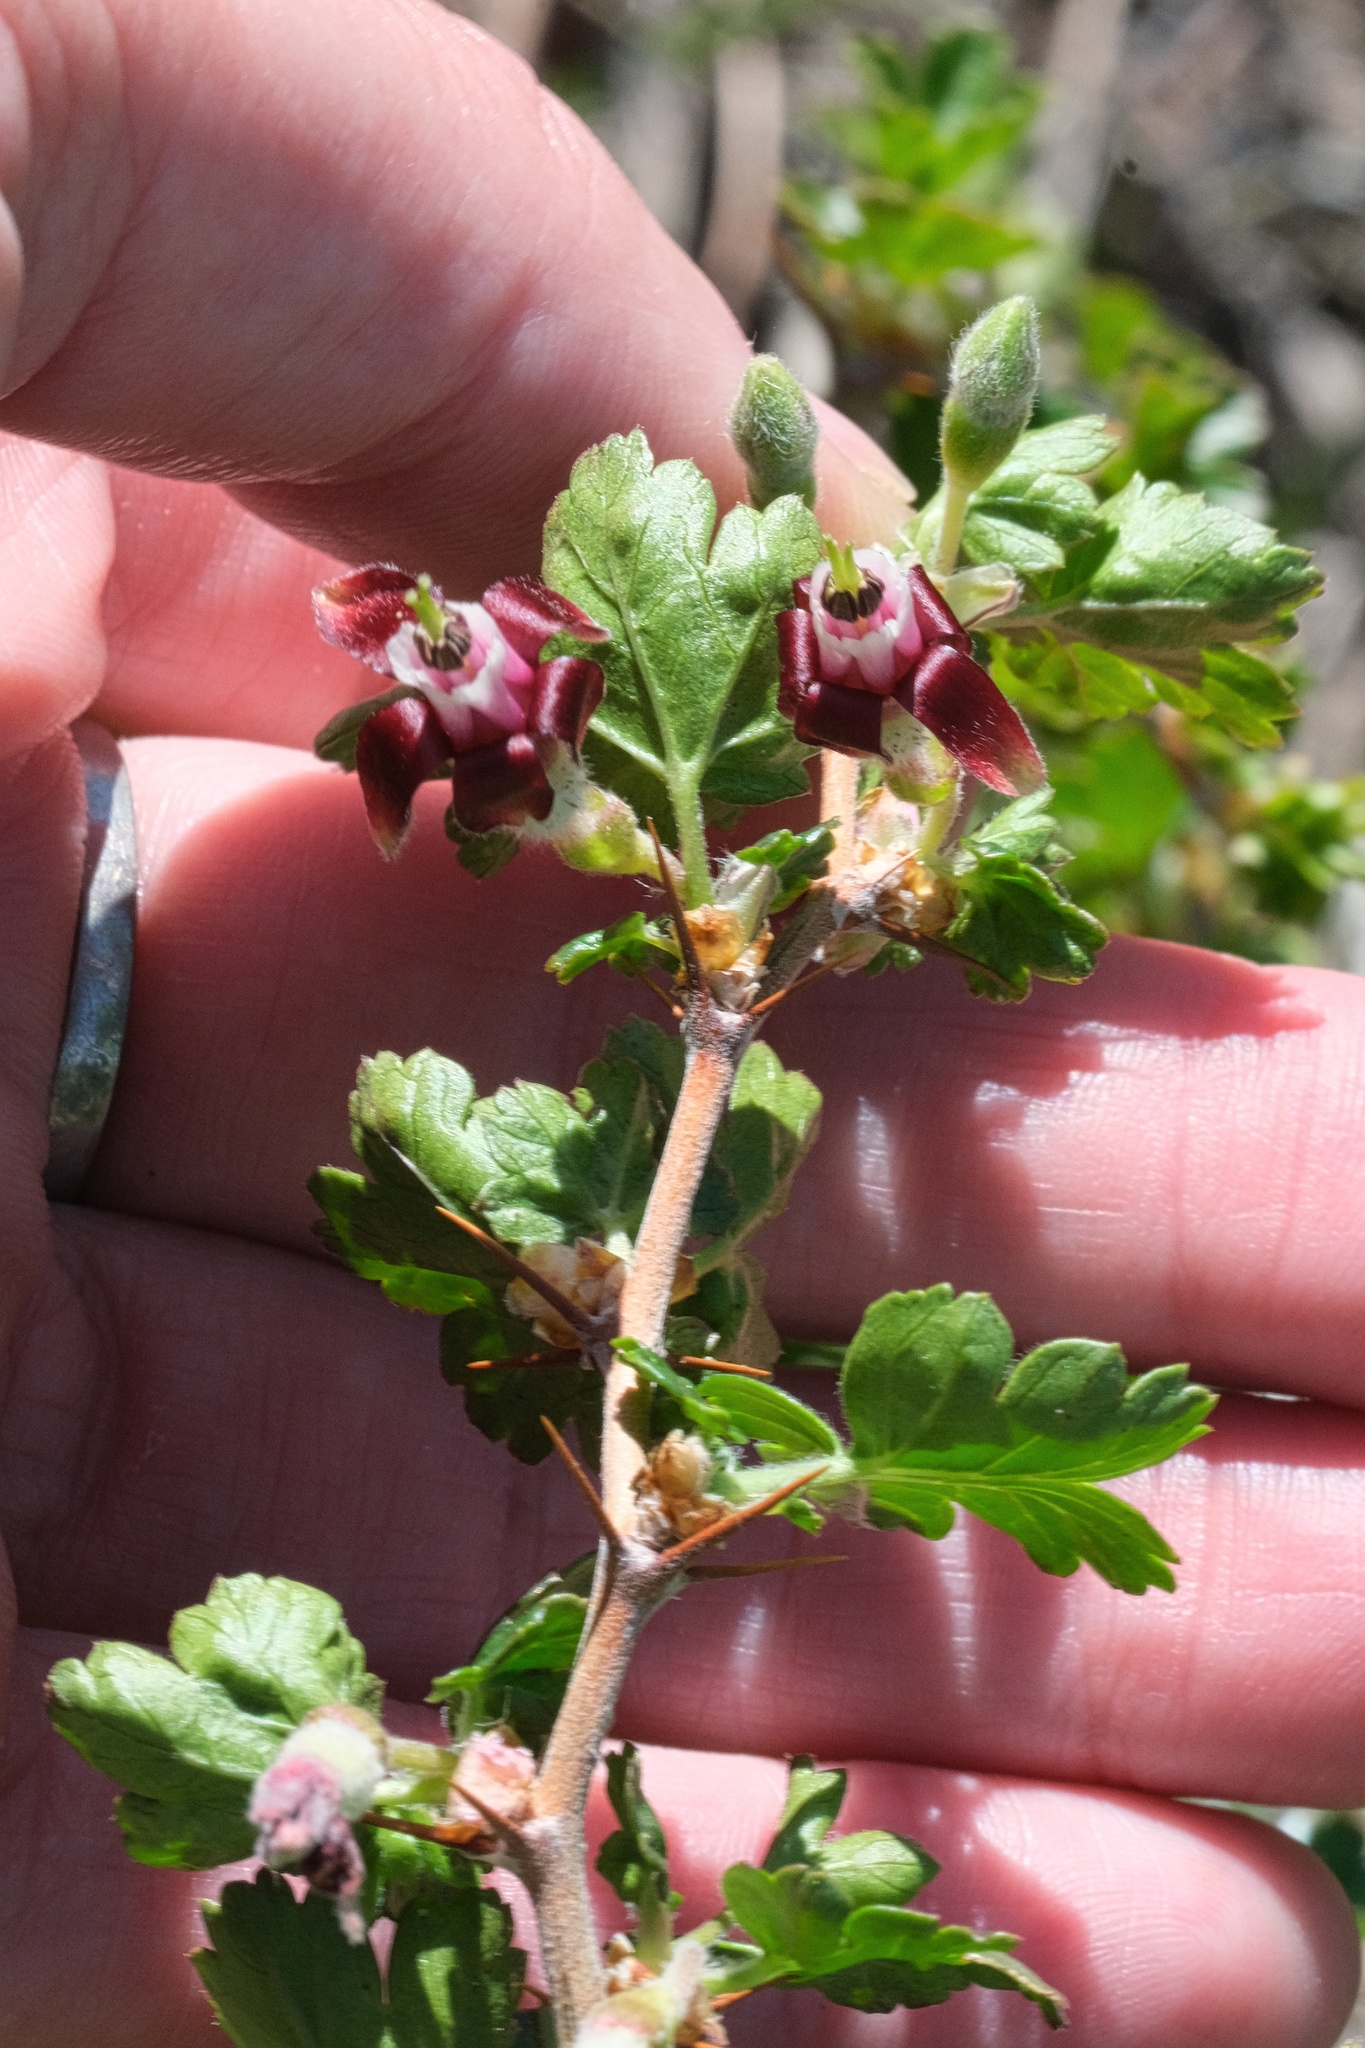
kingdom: Plantae
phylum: Tracheophyta
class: Magnoliopsida
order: Saxifragales
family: Grossulariaceae
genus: Ribes
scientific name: Ribes roezlii
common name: Sierra gooseberry
